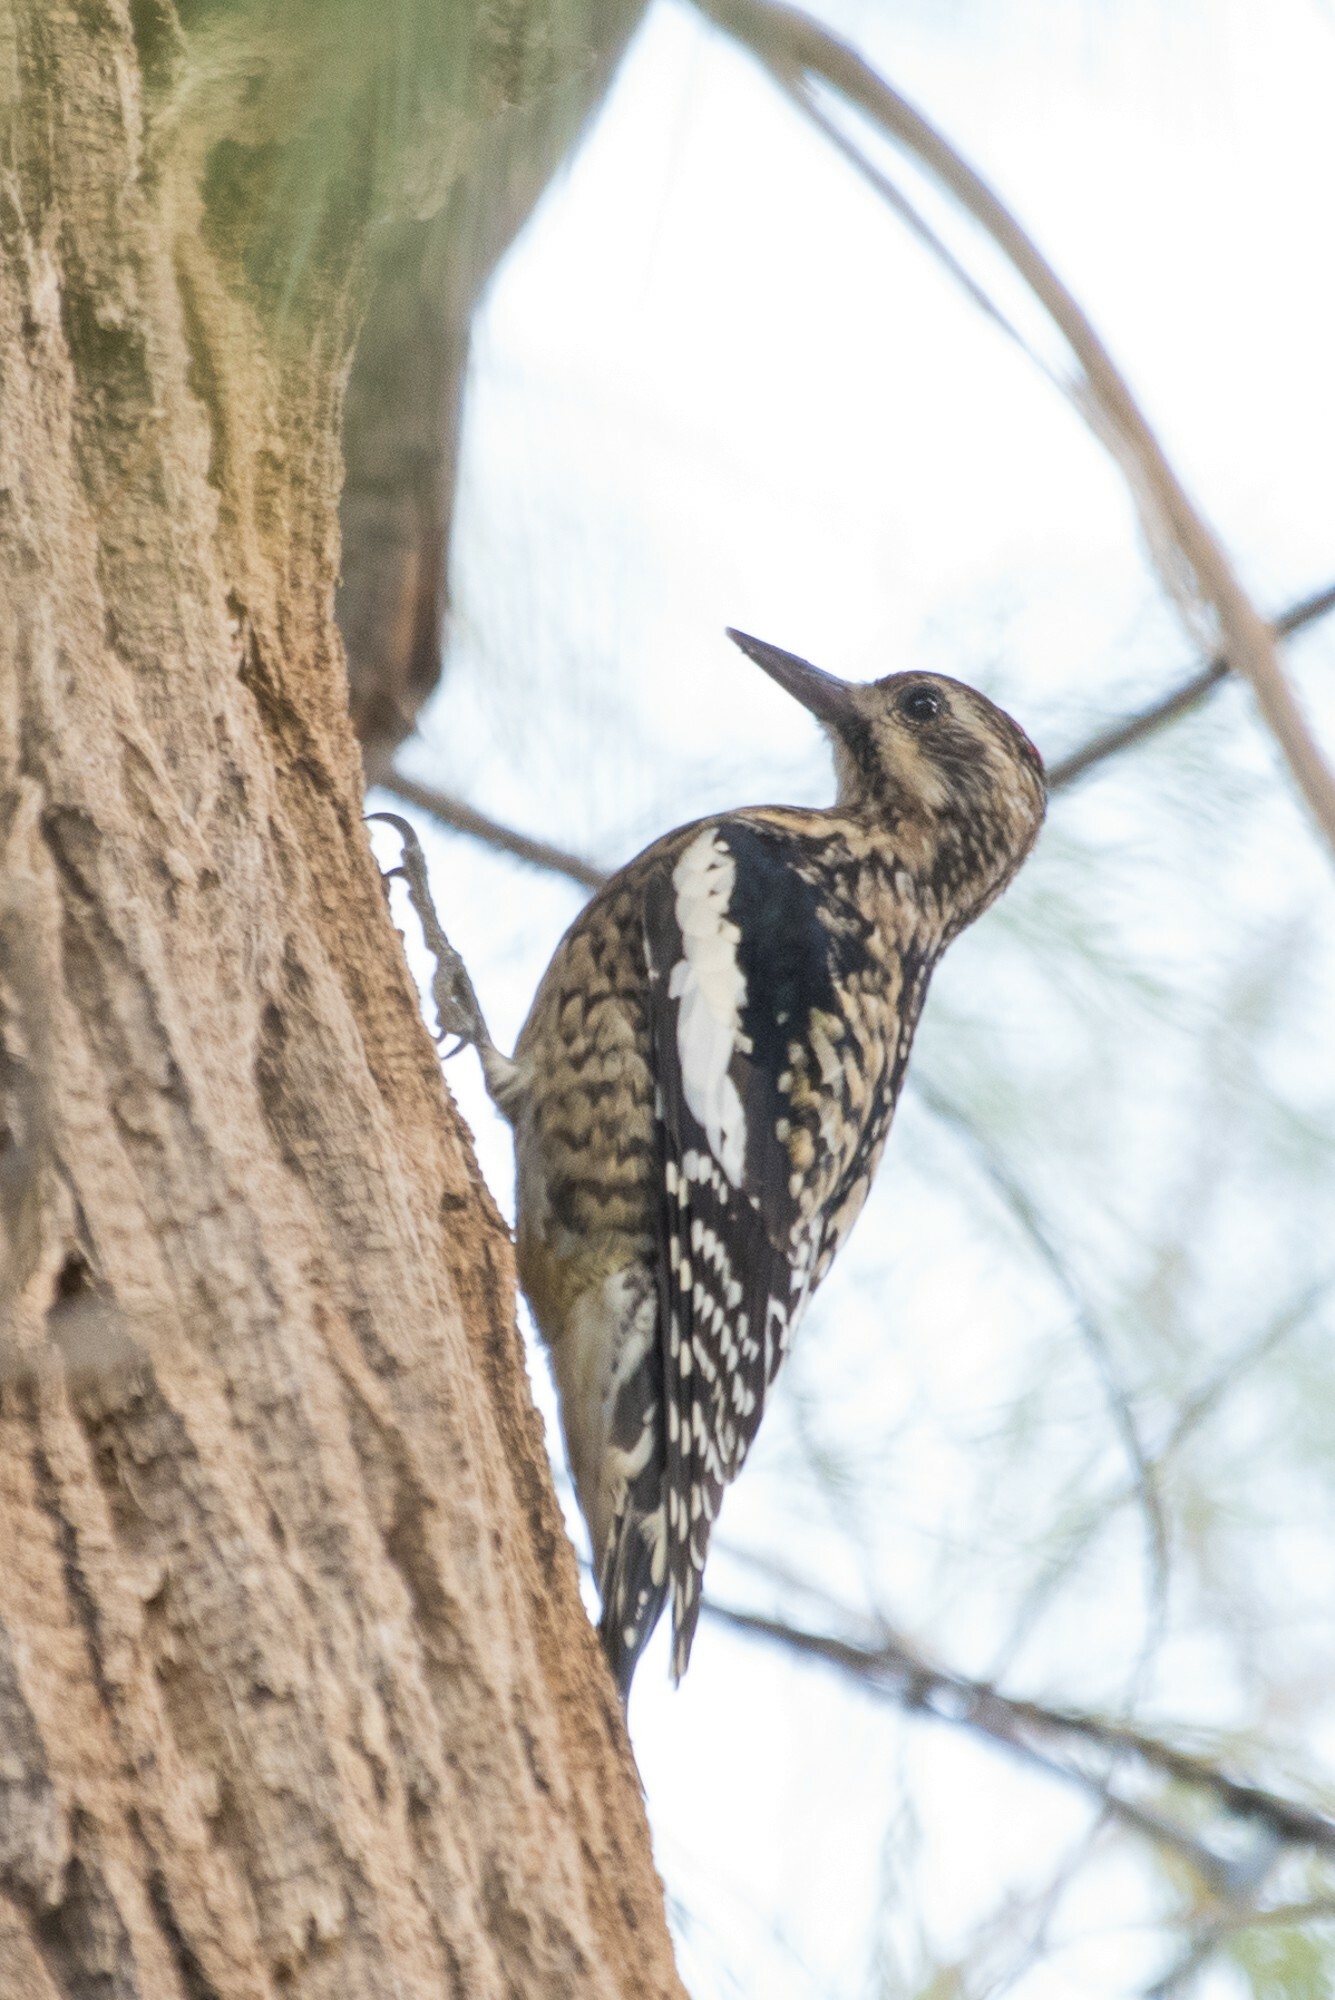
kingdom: Animalia
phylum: Chordata
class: Aves
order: Piciformes
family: Picidae
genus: Sphyrapicus
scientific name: Sphyrapicus varius
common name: Yellow-bellied sapsucker
